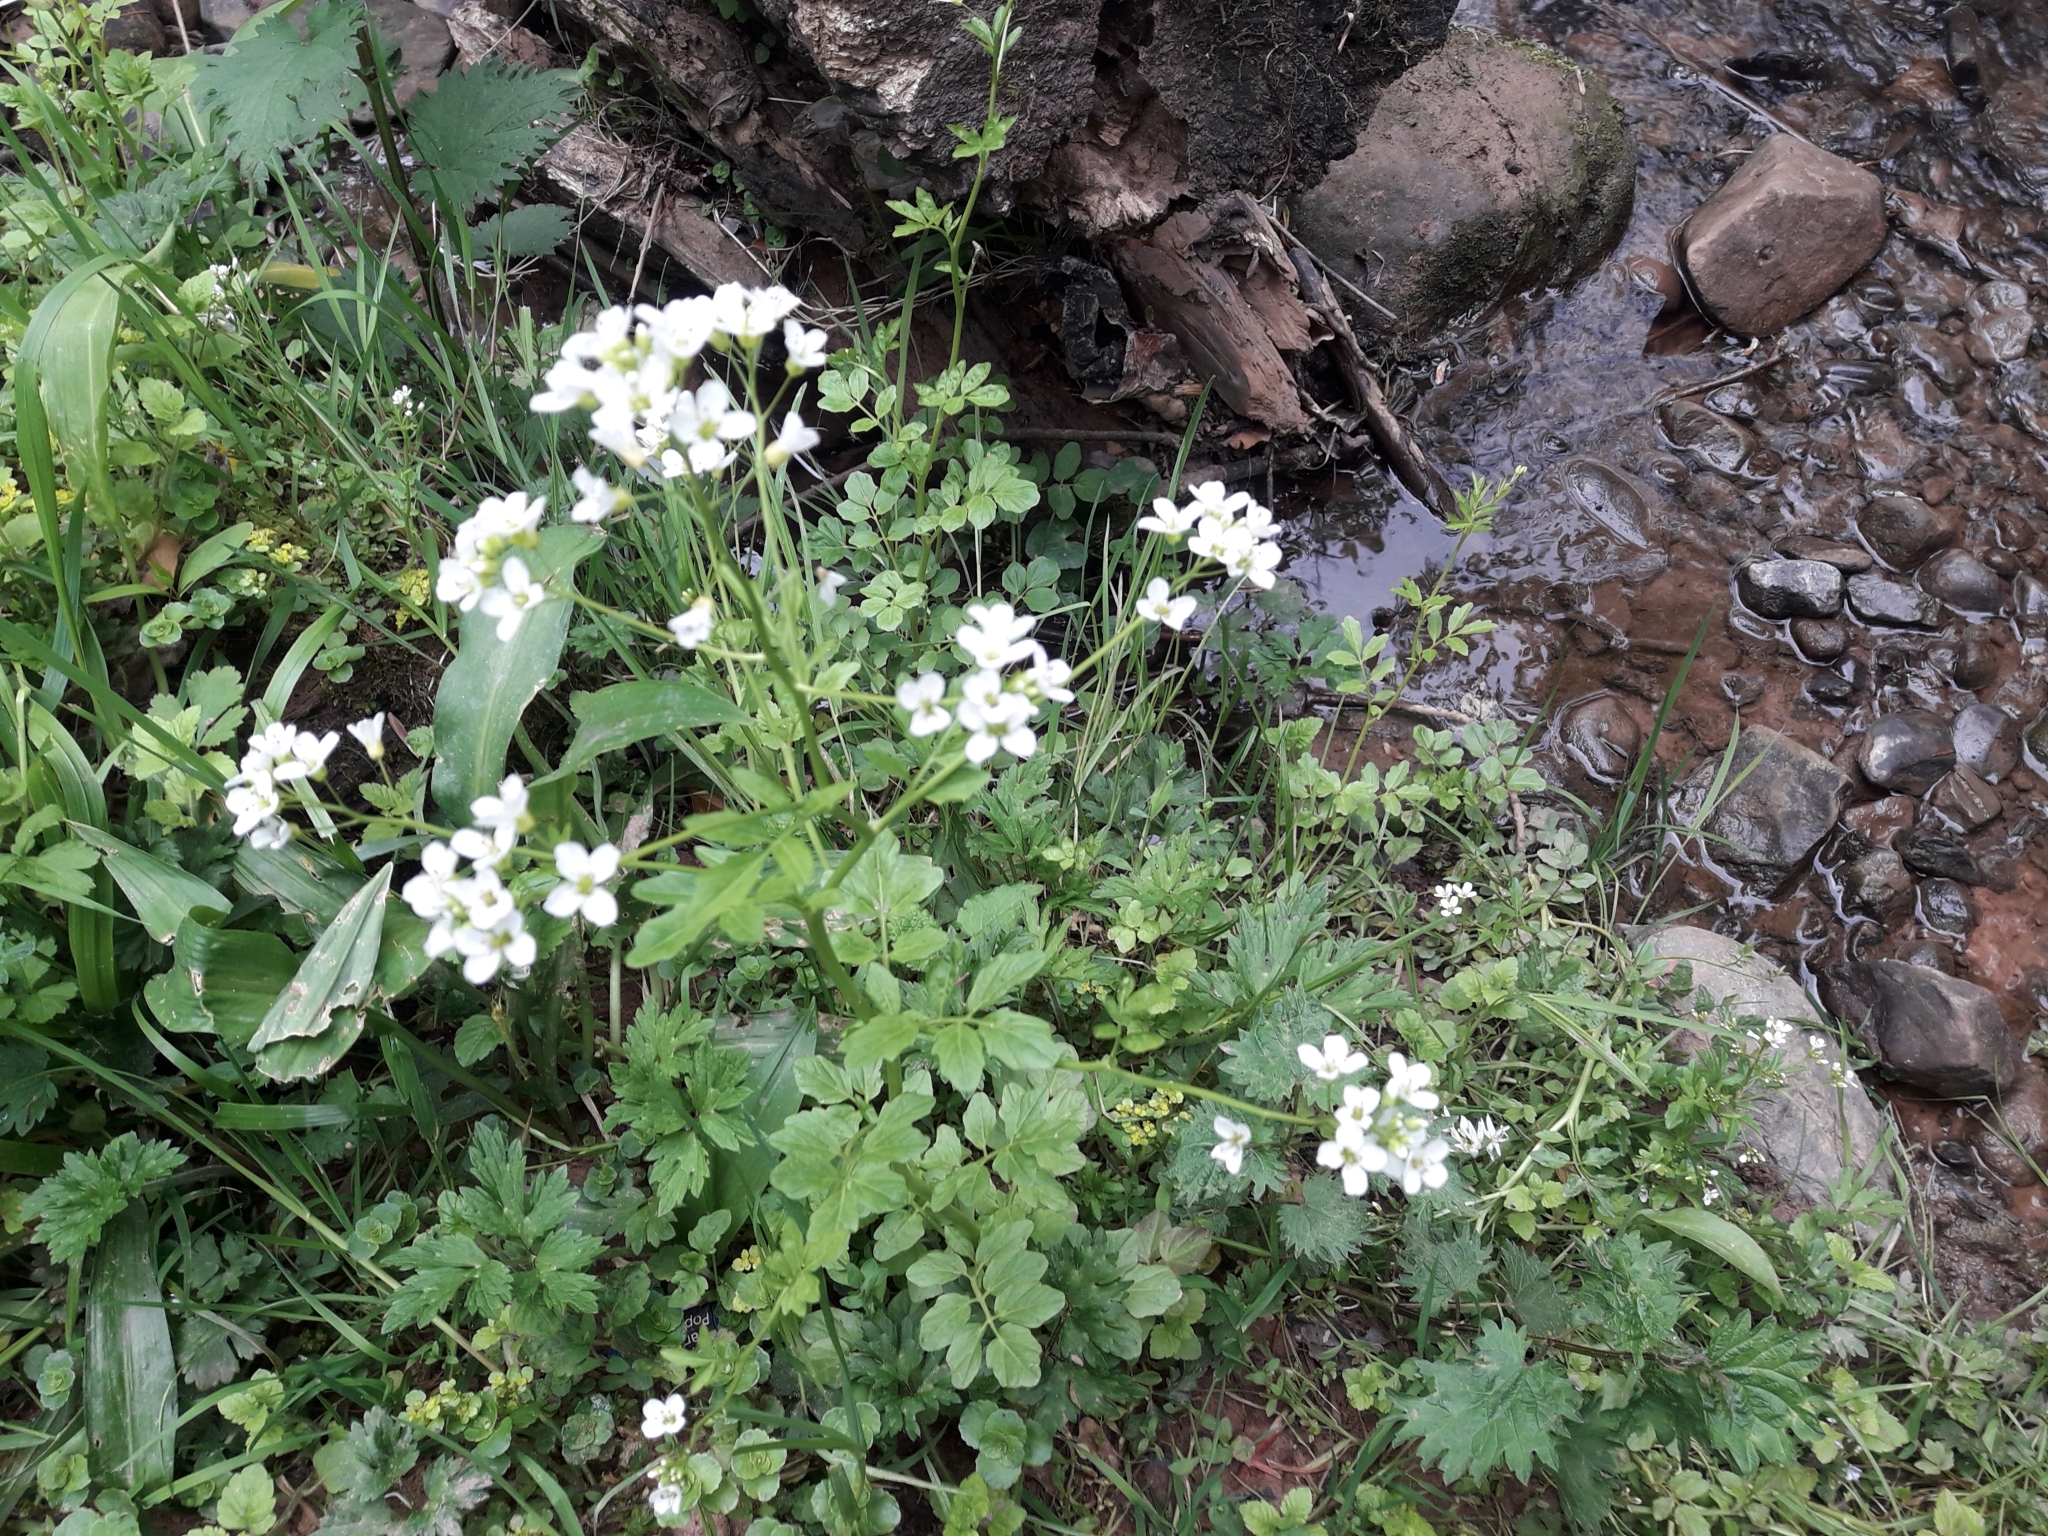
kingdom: Plantae
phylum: Tracheophyta
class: Magnoliopsida
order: Brassicales
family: Brassicaceae
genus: Cardamine
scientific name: Cardamine amara
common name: Large bitter-cress
